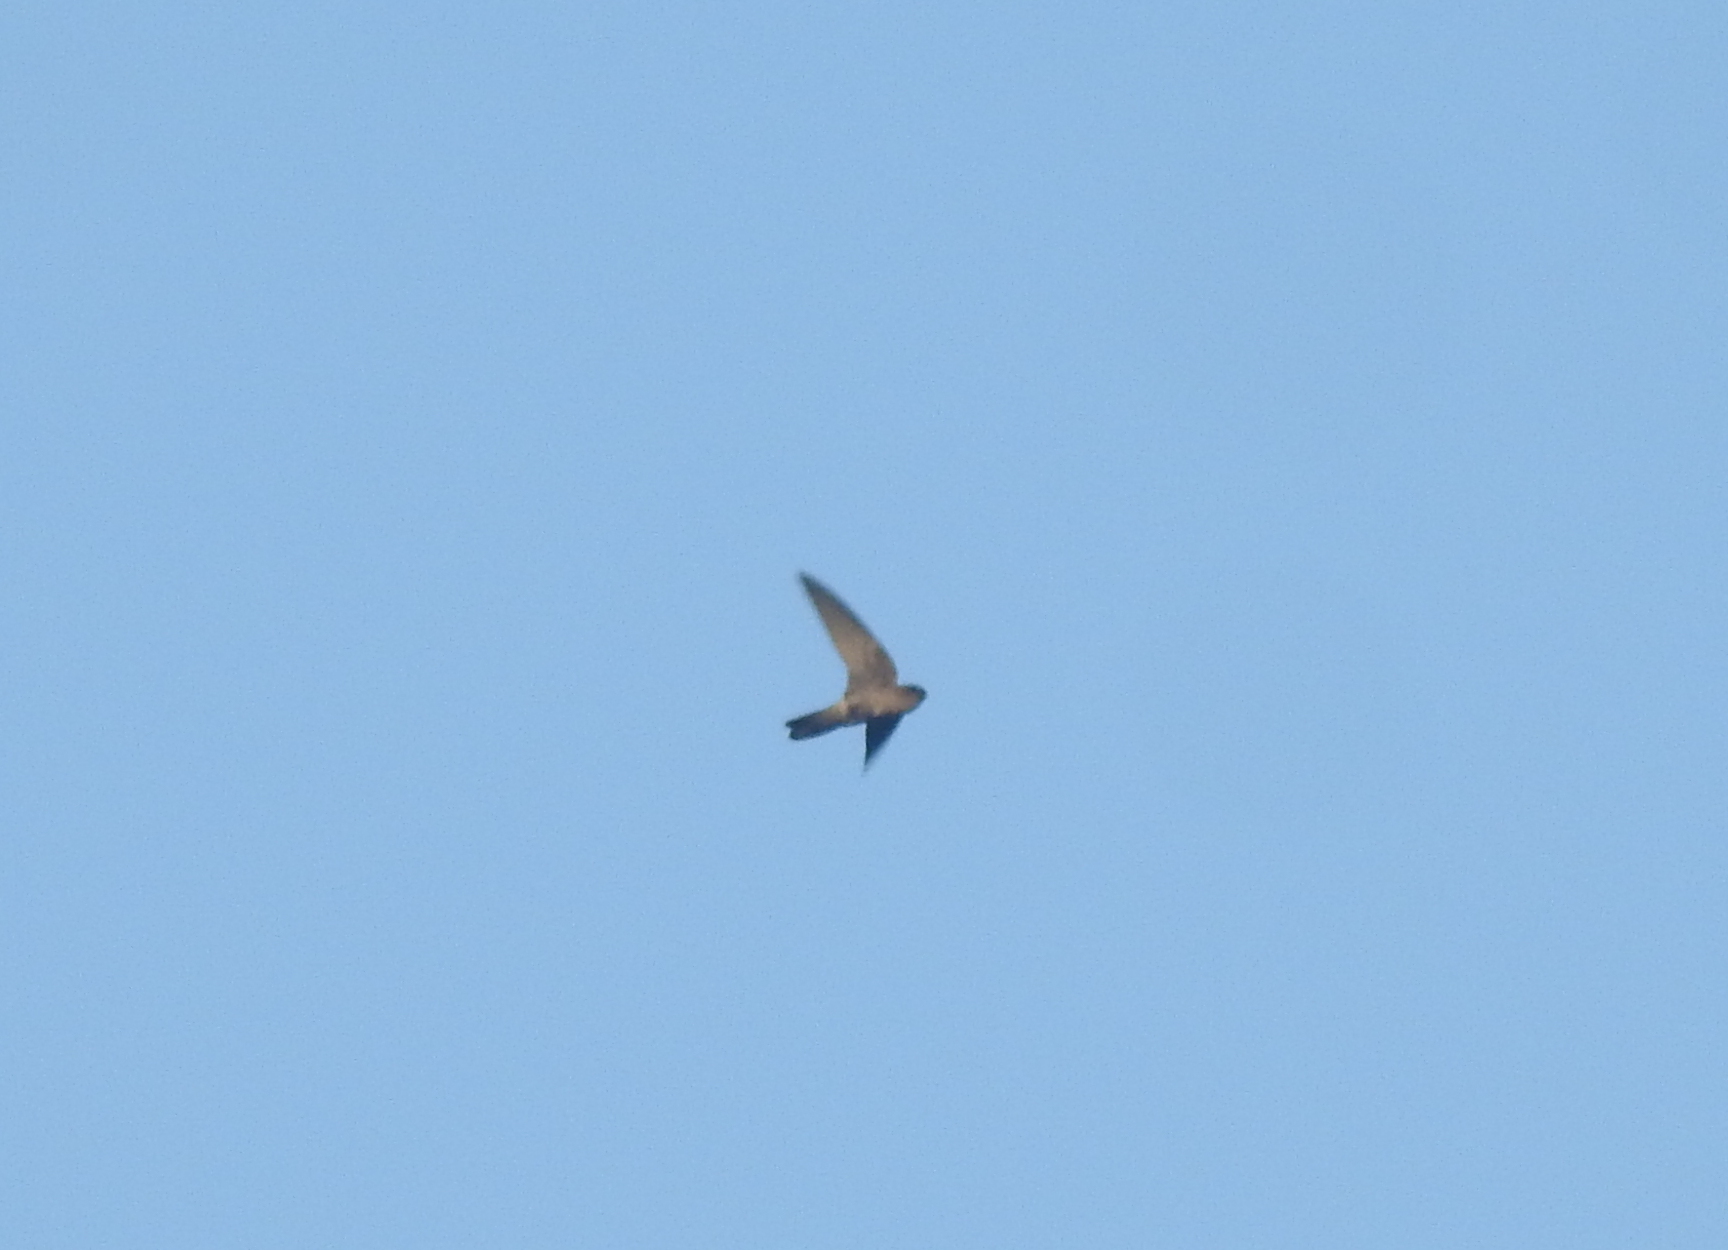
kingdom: Animalia
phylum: Chordata
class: Aves
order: Apodiformes
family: Apodidae
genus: Aerodramus
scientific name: Aerodramus
